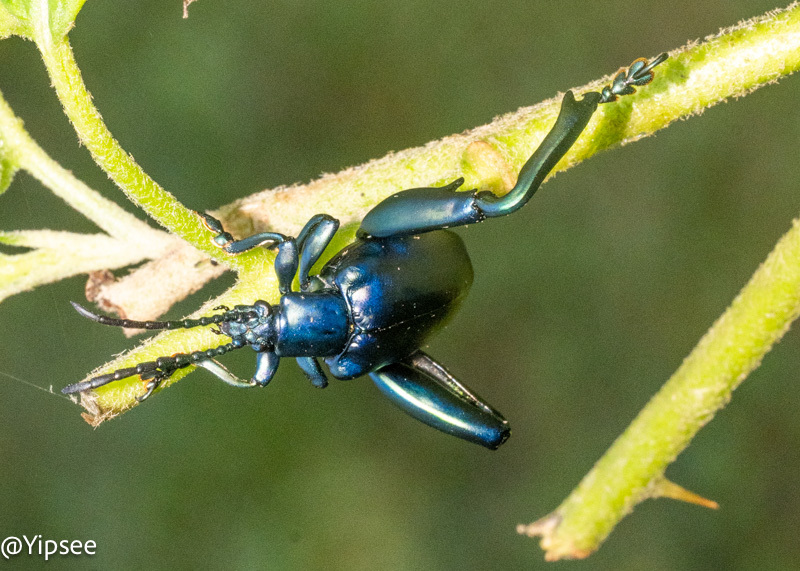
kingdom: Animalia
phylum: Arthropoda
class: Insecta
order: Coleoptera
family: Chrysomelidae
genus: Sagra
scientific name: Sagra femorata
